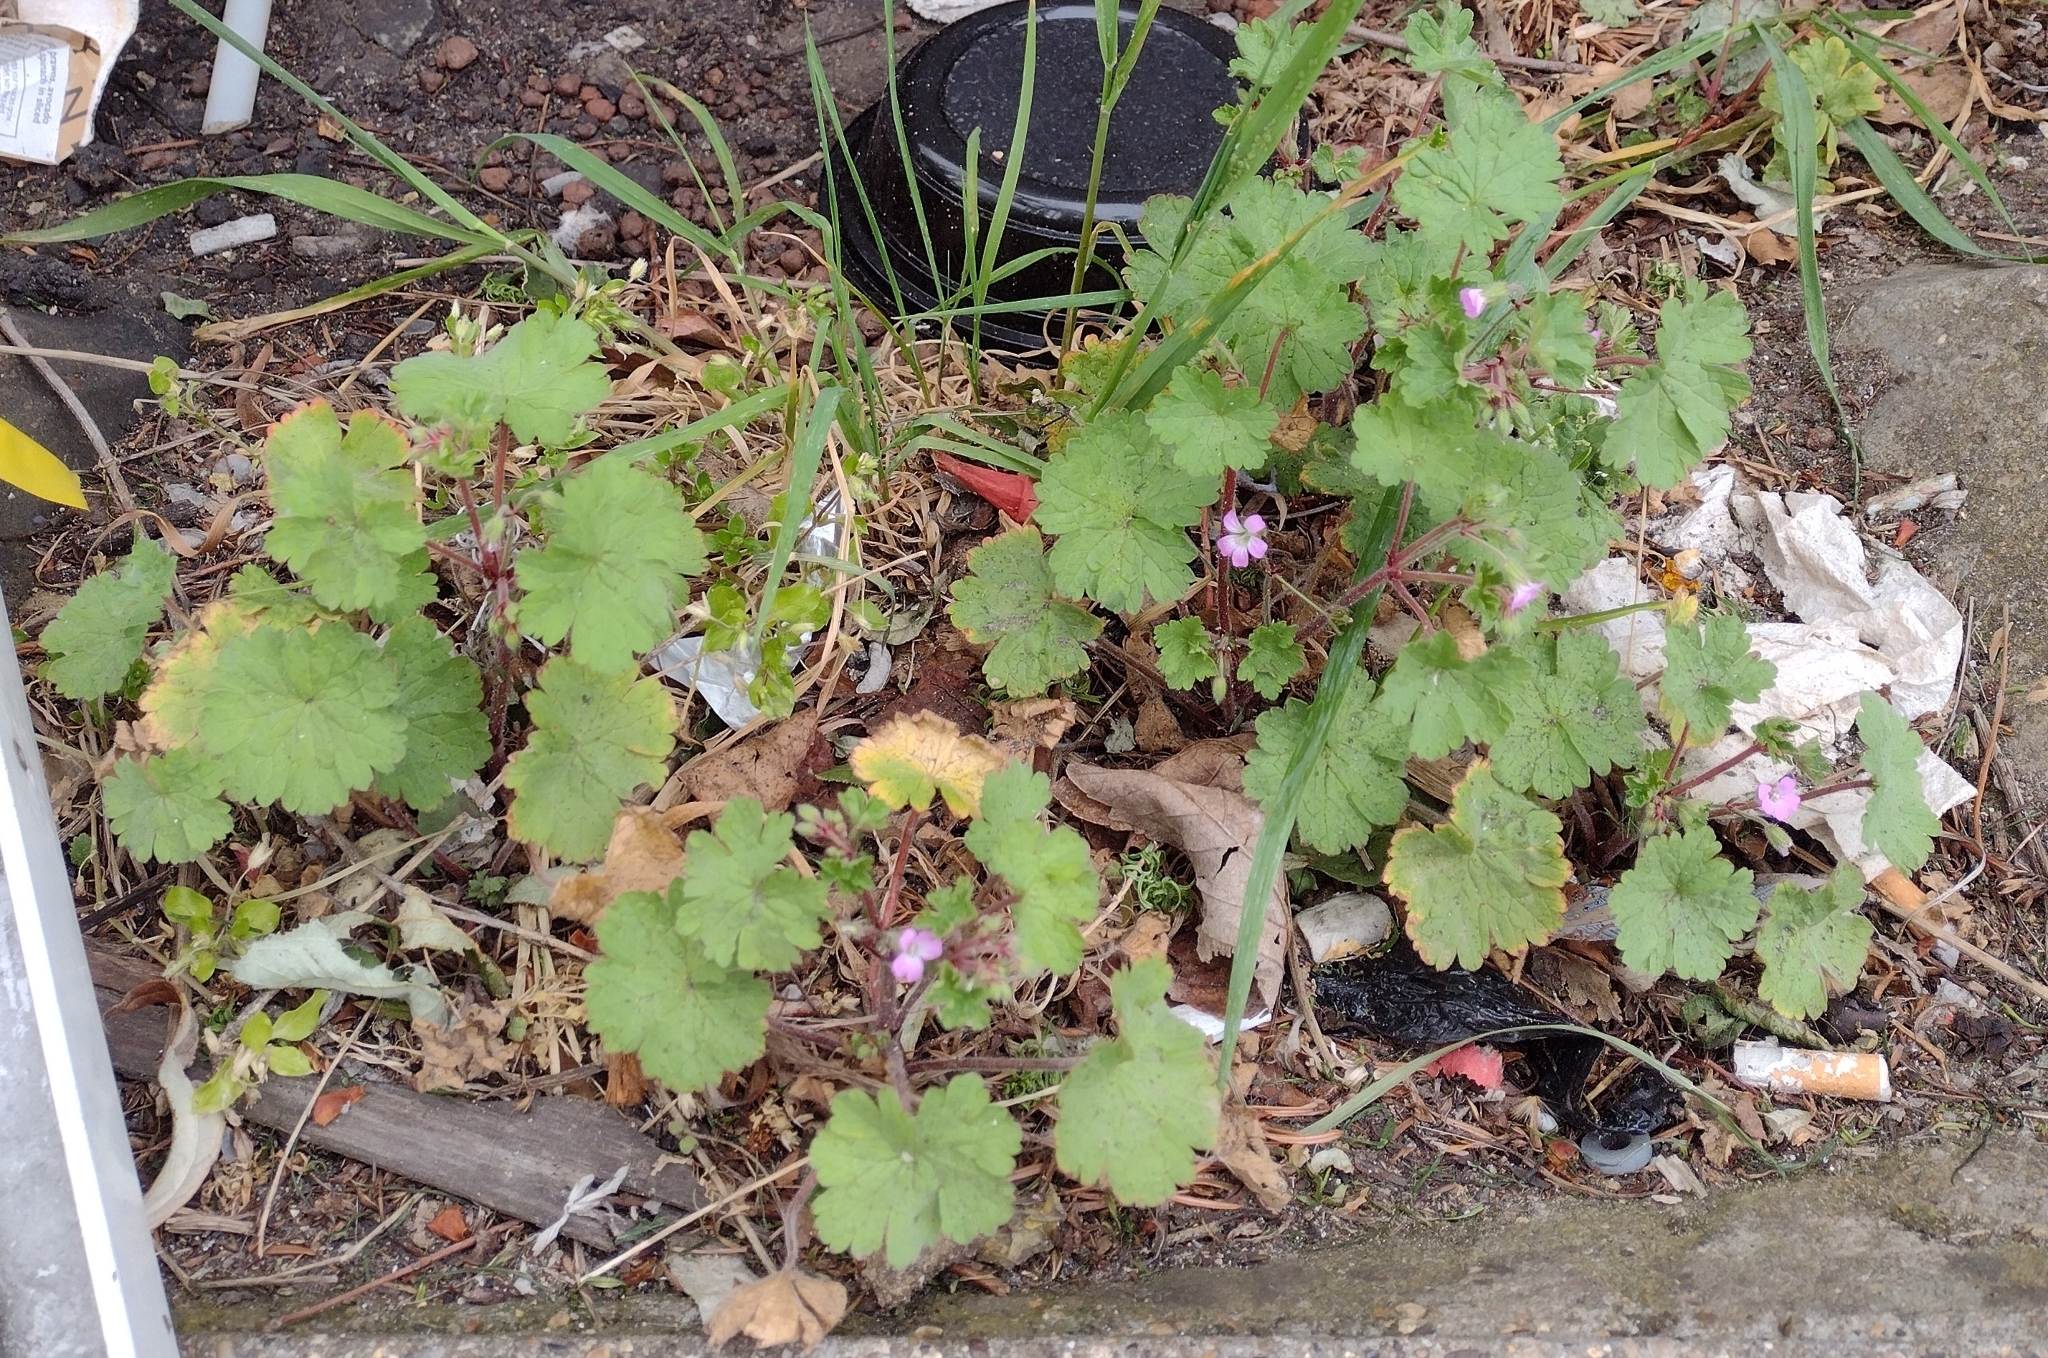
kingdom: Plantae
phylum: Tracheophyta
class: Magnoliopsida
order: Geraniales
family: Geraniaceae
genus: Geranium
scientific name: Geranium rotundifolium
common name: Round-leaved crane's-bill
